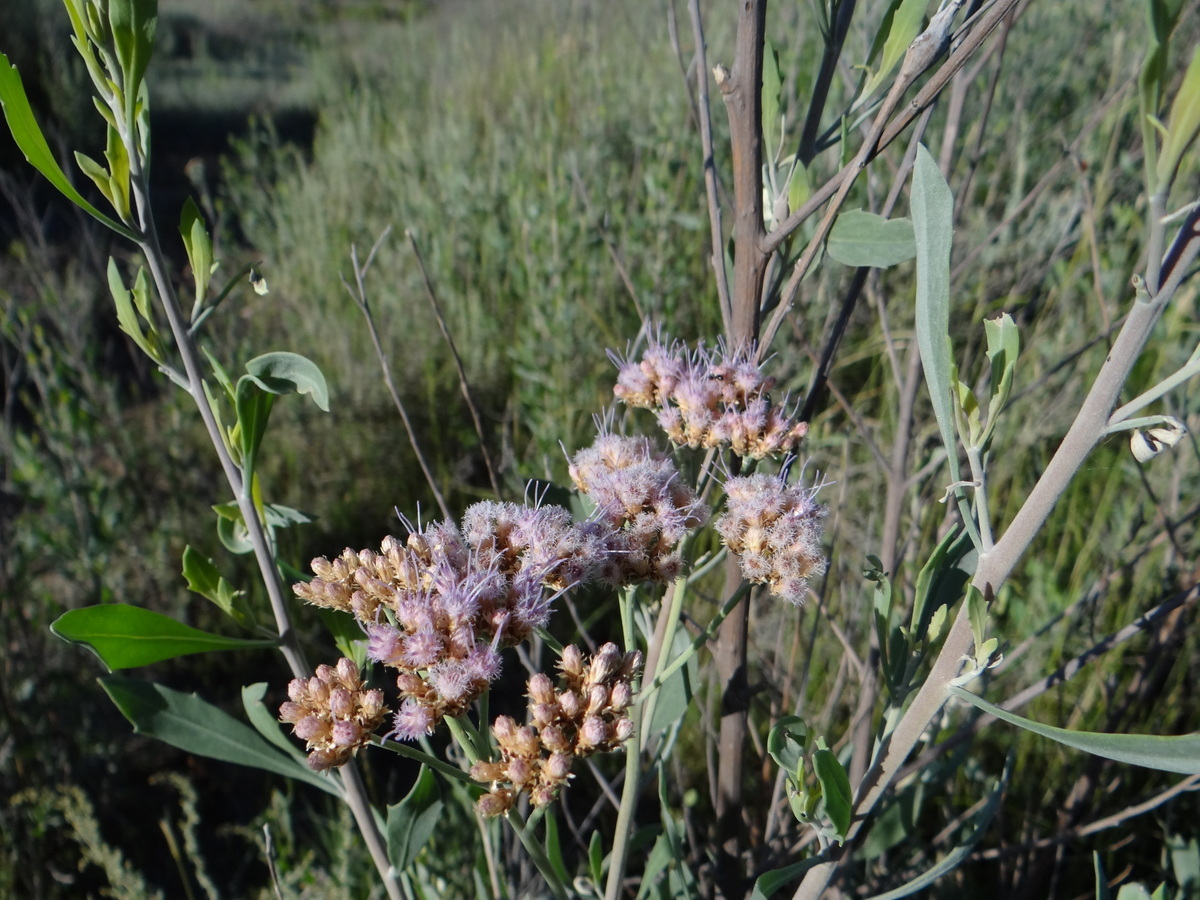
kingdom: Plantae
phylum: Tracheophyta
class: Magnoliopsida
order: Asterales
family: Asteraceae
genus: Tessaria
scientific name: Tessaria absinthioides
